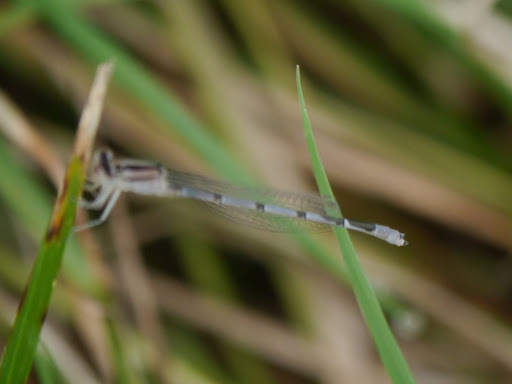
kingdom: Animalia
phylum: Arthropoda
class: Insecta
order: Odonata
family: Coenagrionidae
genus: Enallagma
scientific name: Enallagma civile
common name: Damselfly
